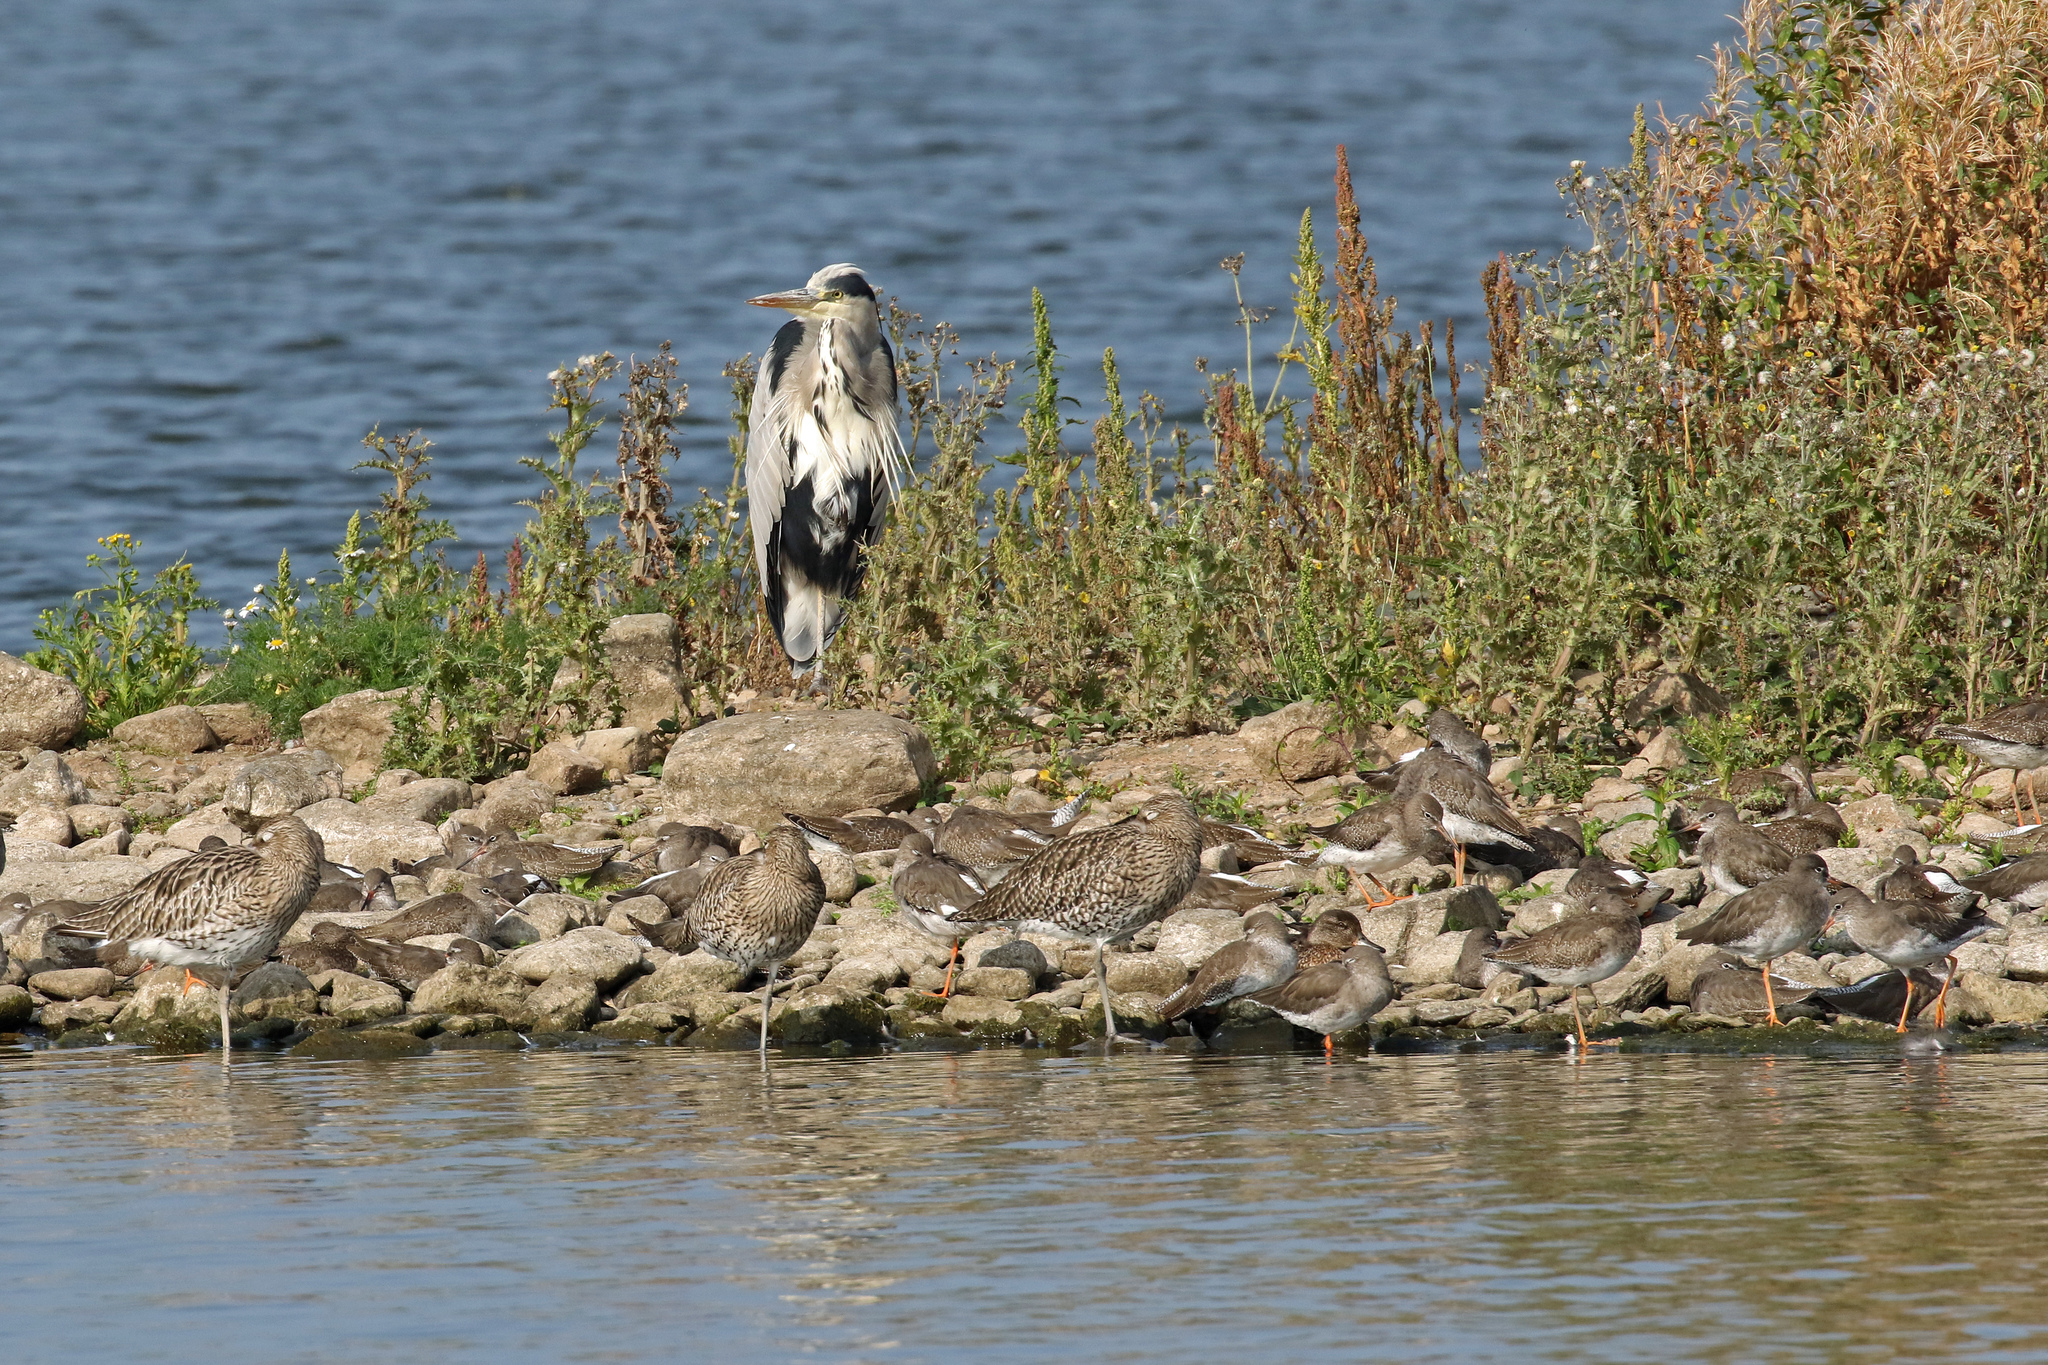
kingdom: Animalia
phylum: Chordata
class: Aves
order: Pelecaniformes
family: Ardeidae
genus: Ardea
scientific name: Ardea cinerea
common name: Grey heron
